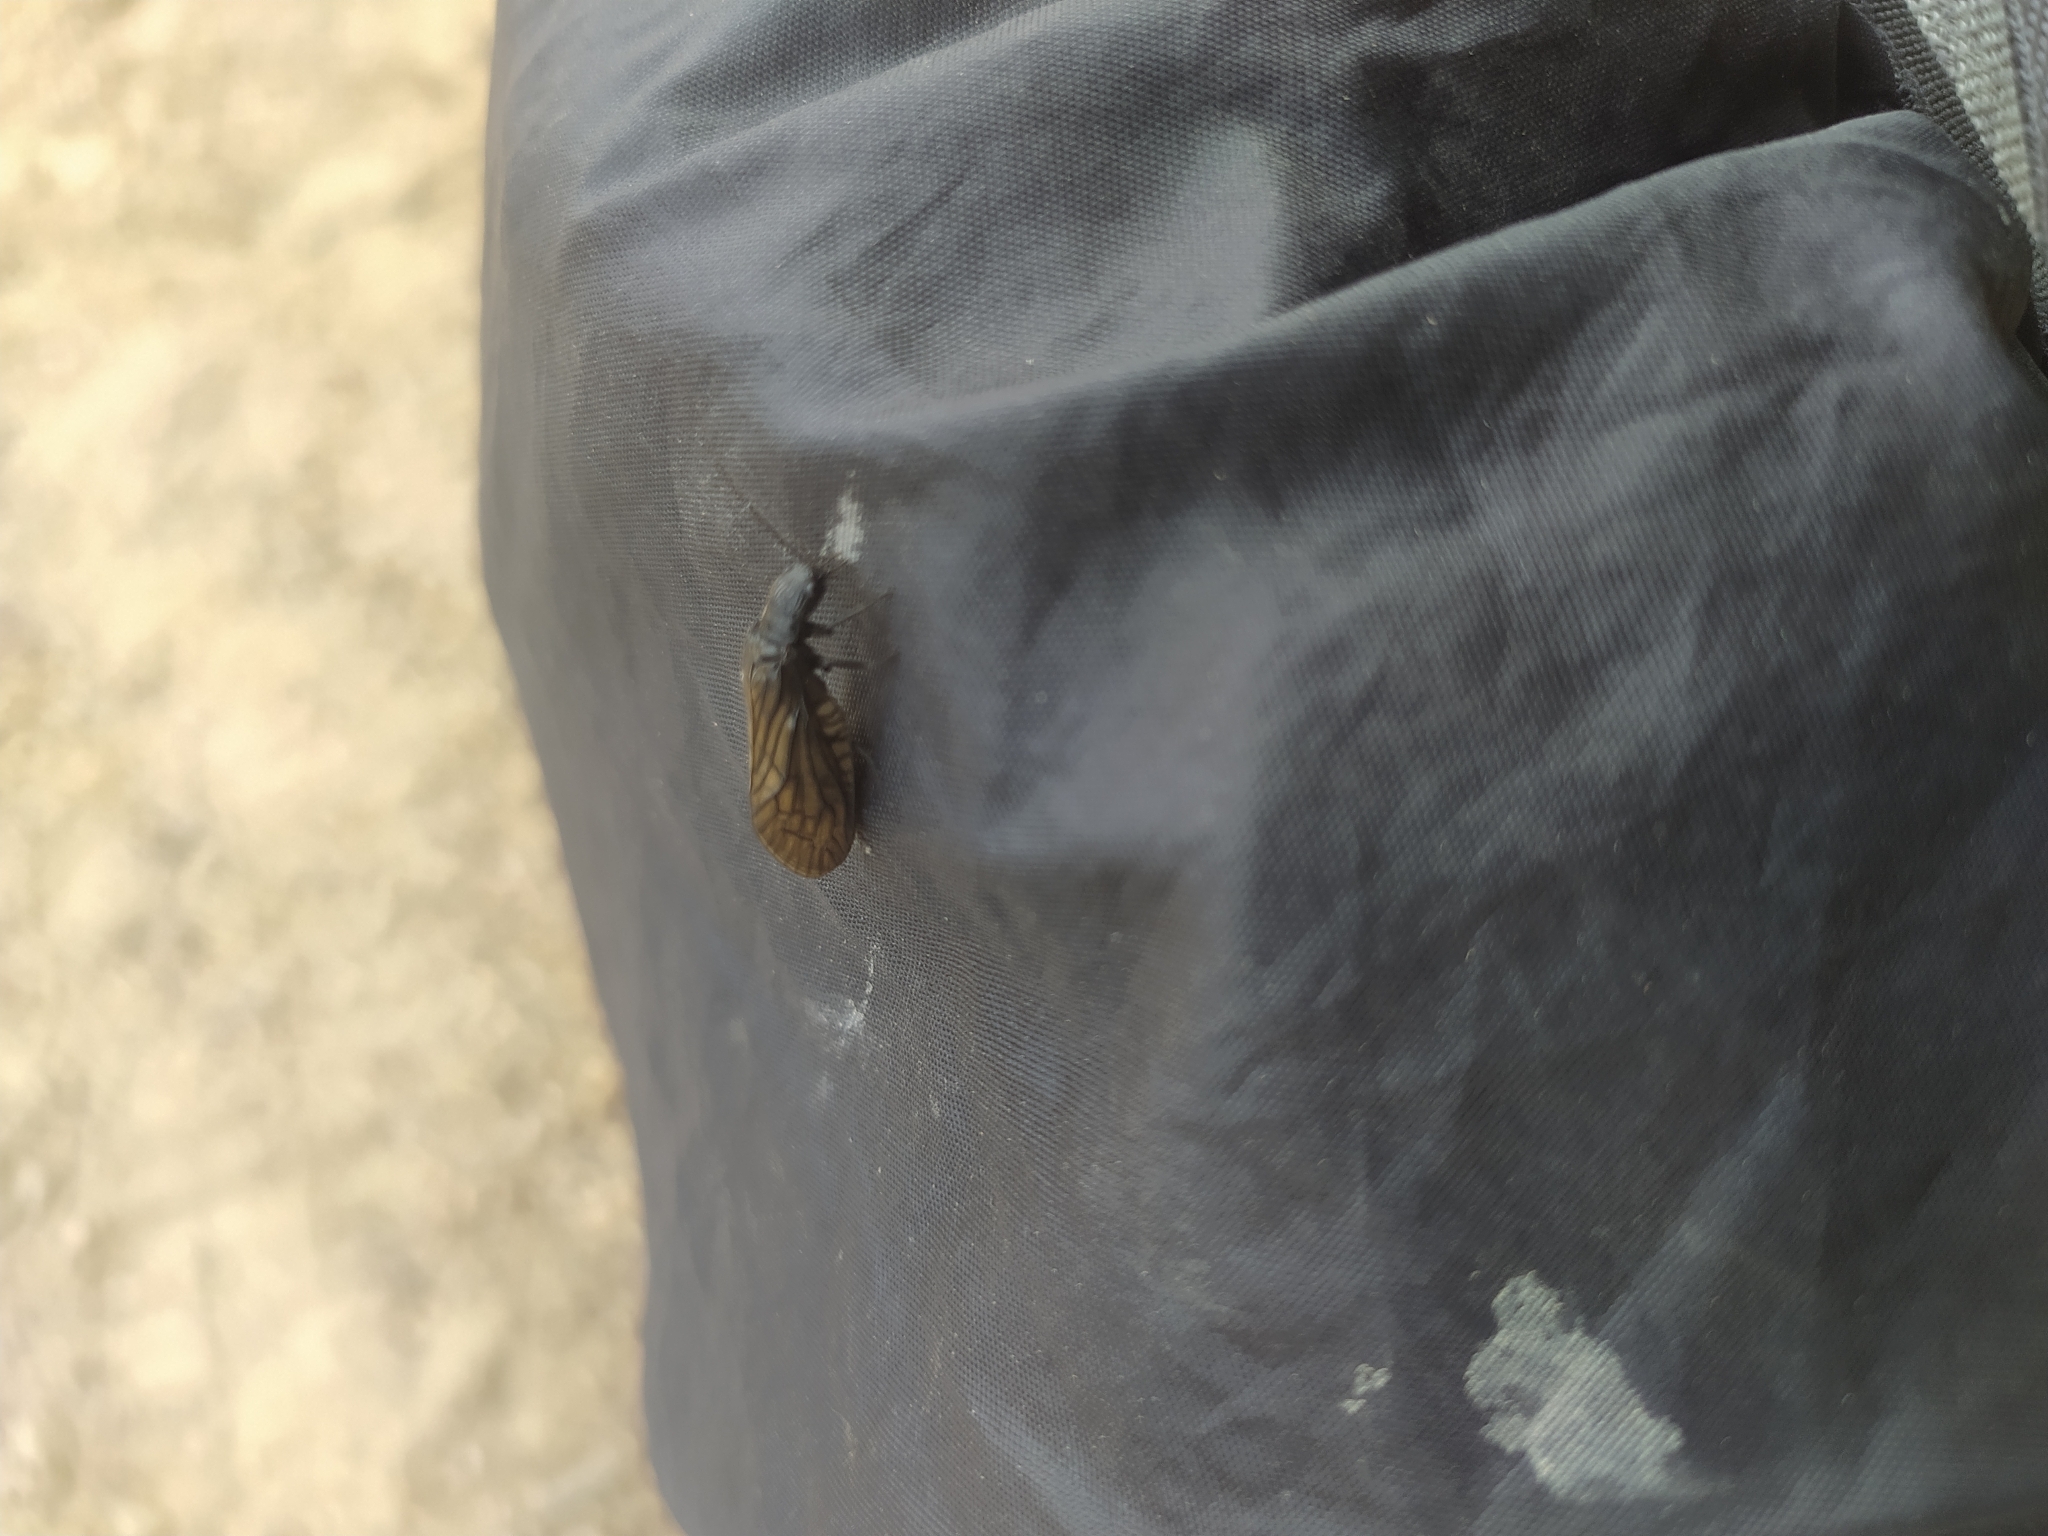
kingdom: Animalia
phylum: Arthropoda
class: Insecta
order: Megaloptera
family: Sialidae
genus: Sialis
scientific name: Sialis
